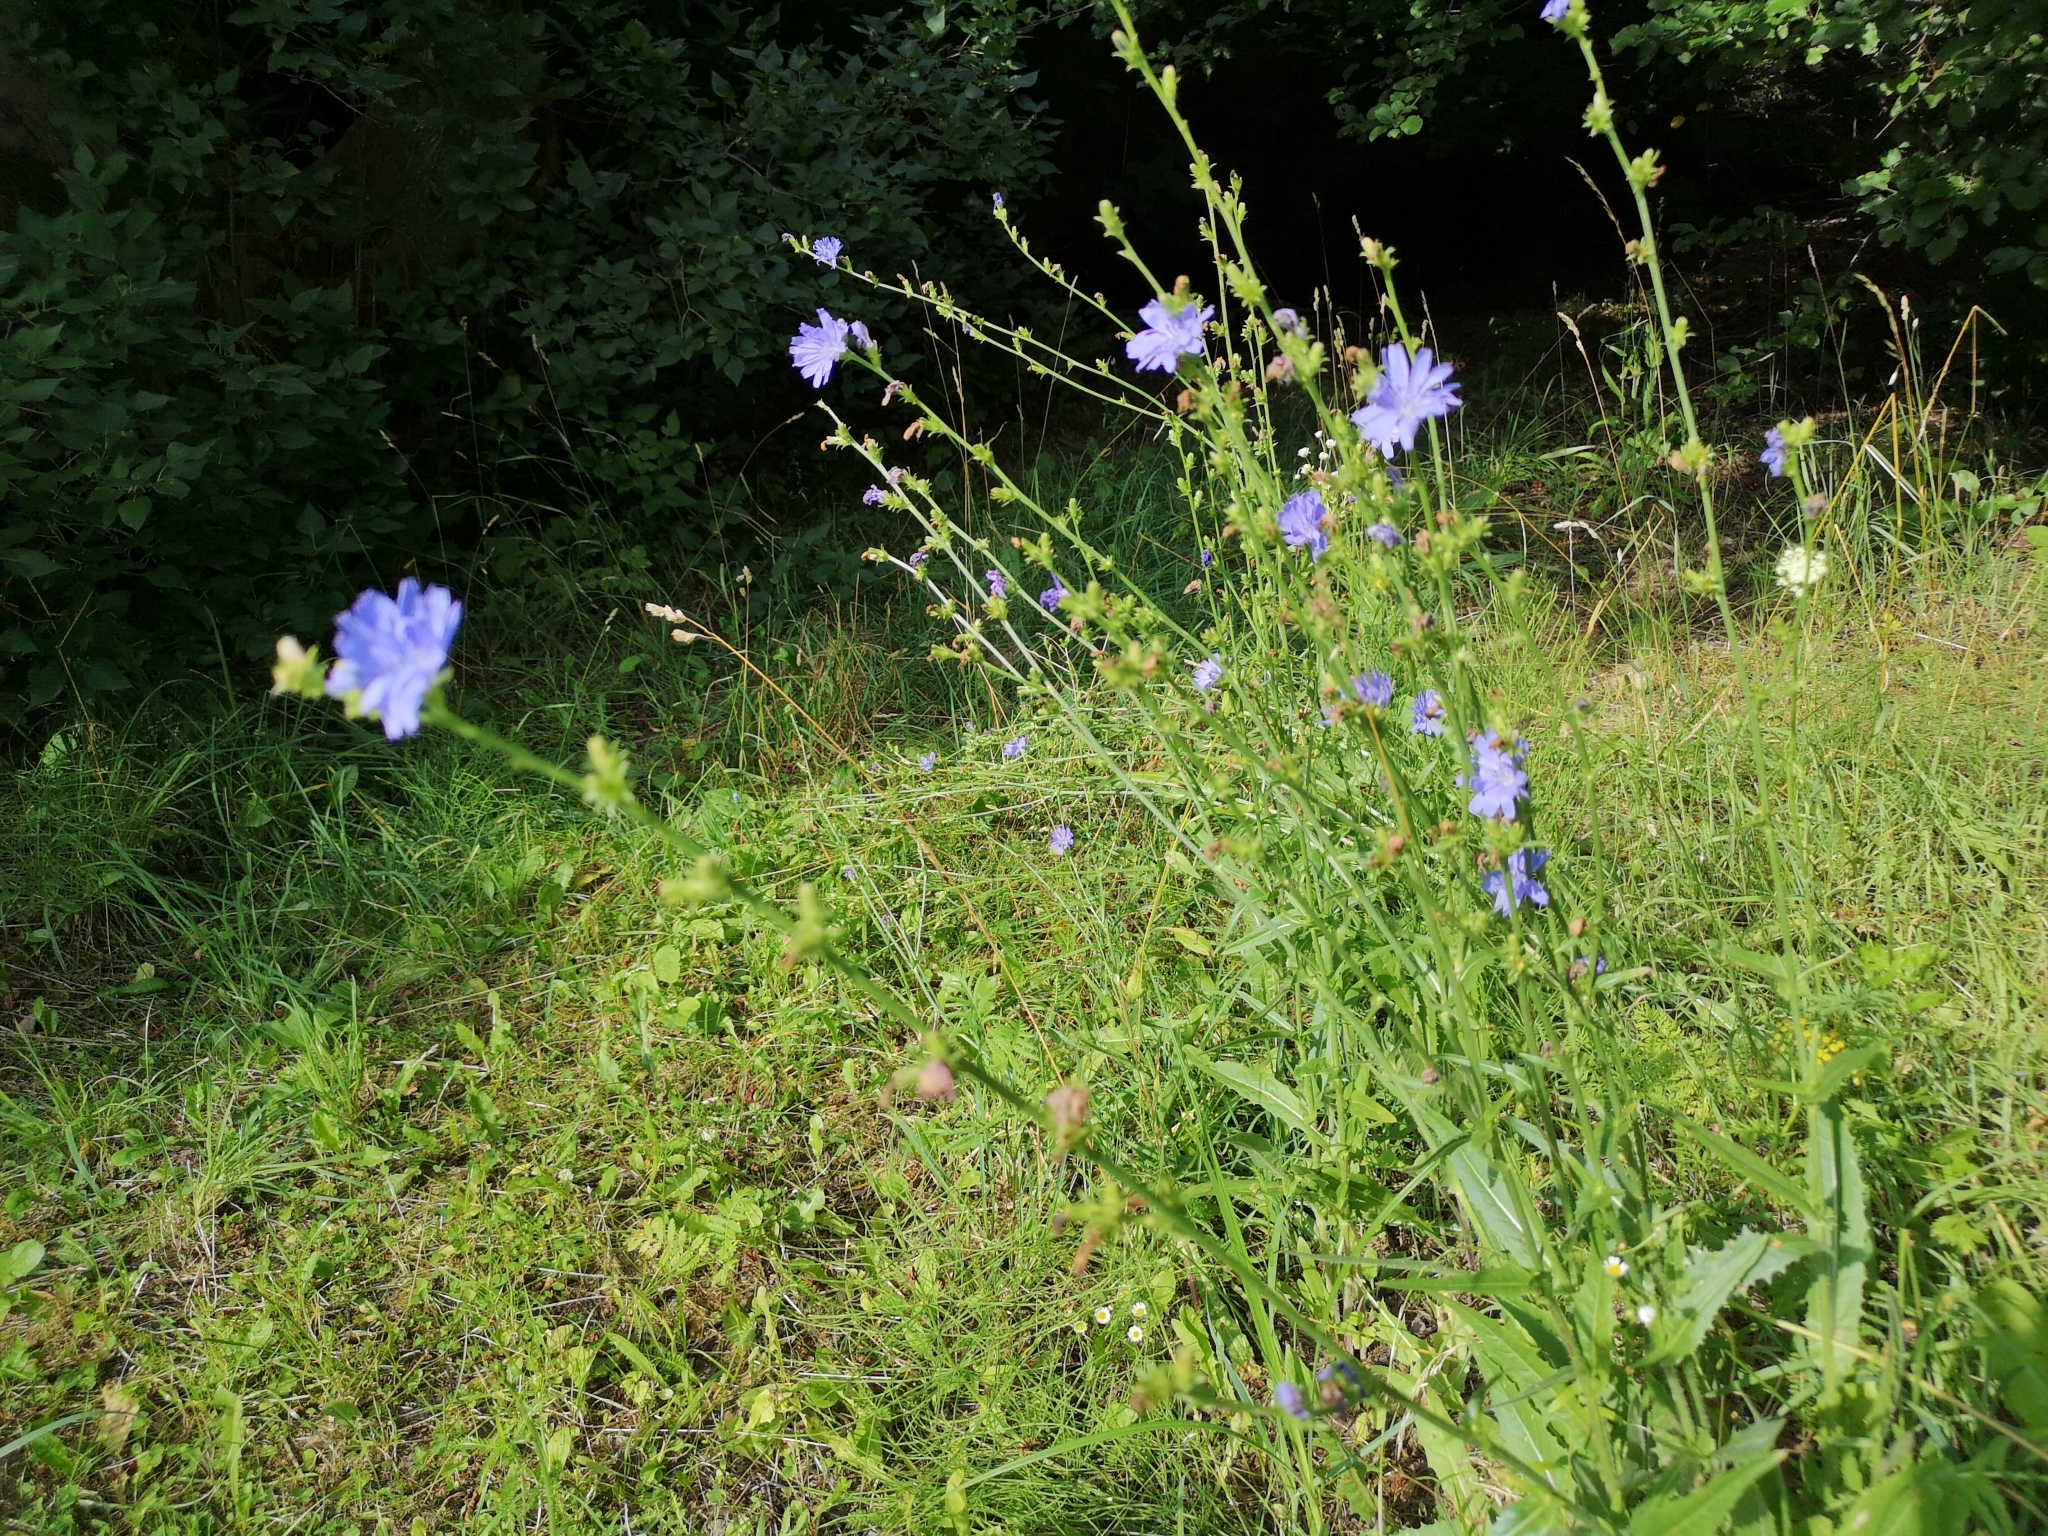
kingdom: Plantae
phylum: Tracheophyta
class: Magnoliopsida
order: Asterales
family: Asteraceae
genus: Cichorium
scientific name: Cichorium intybus
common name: Chicory
